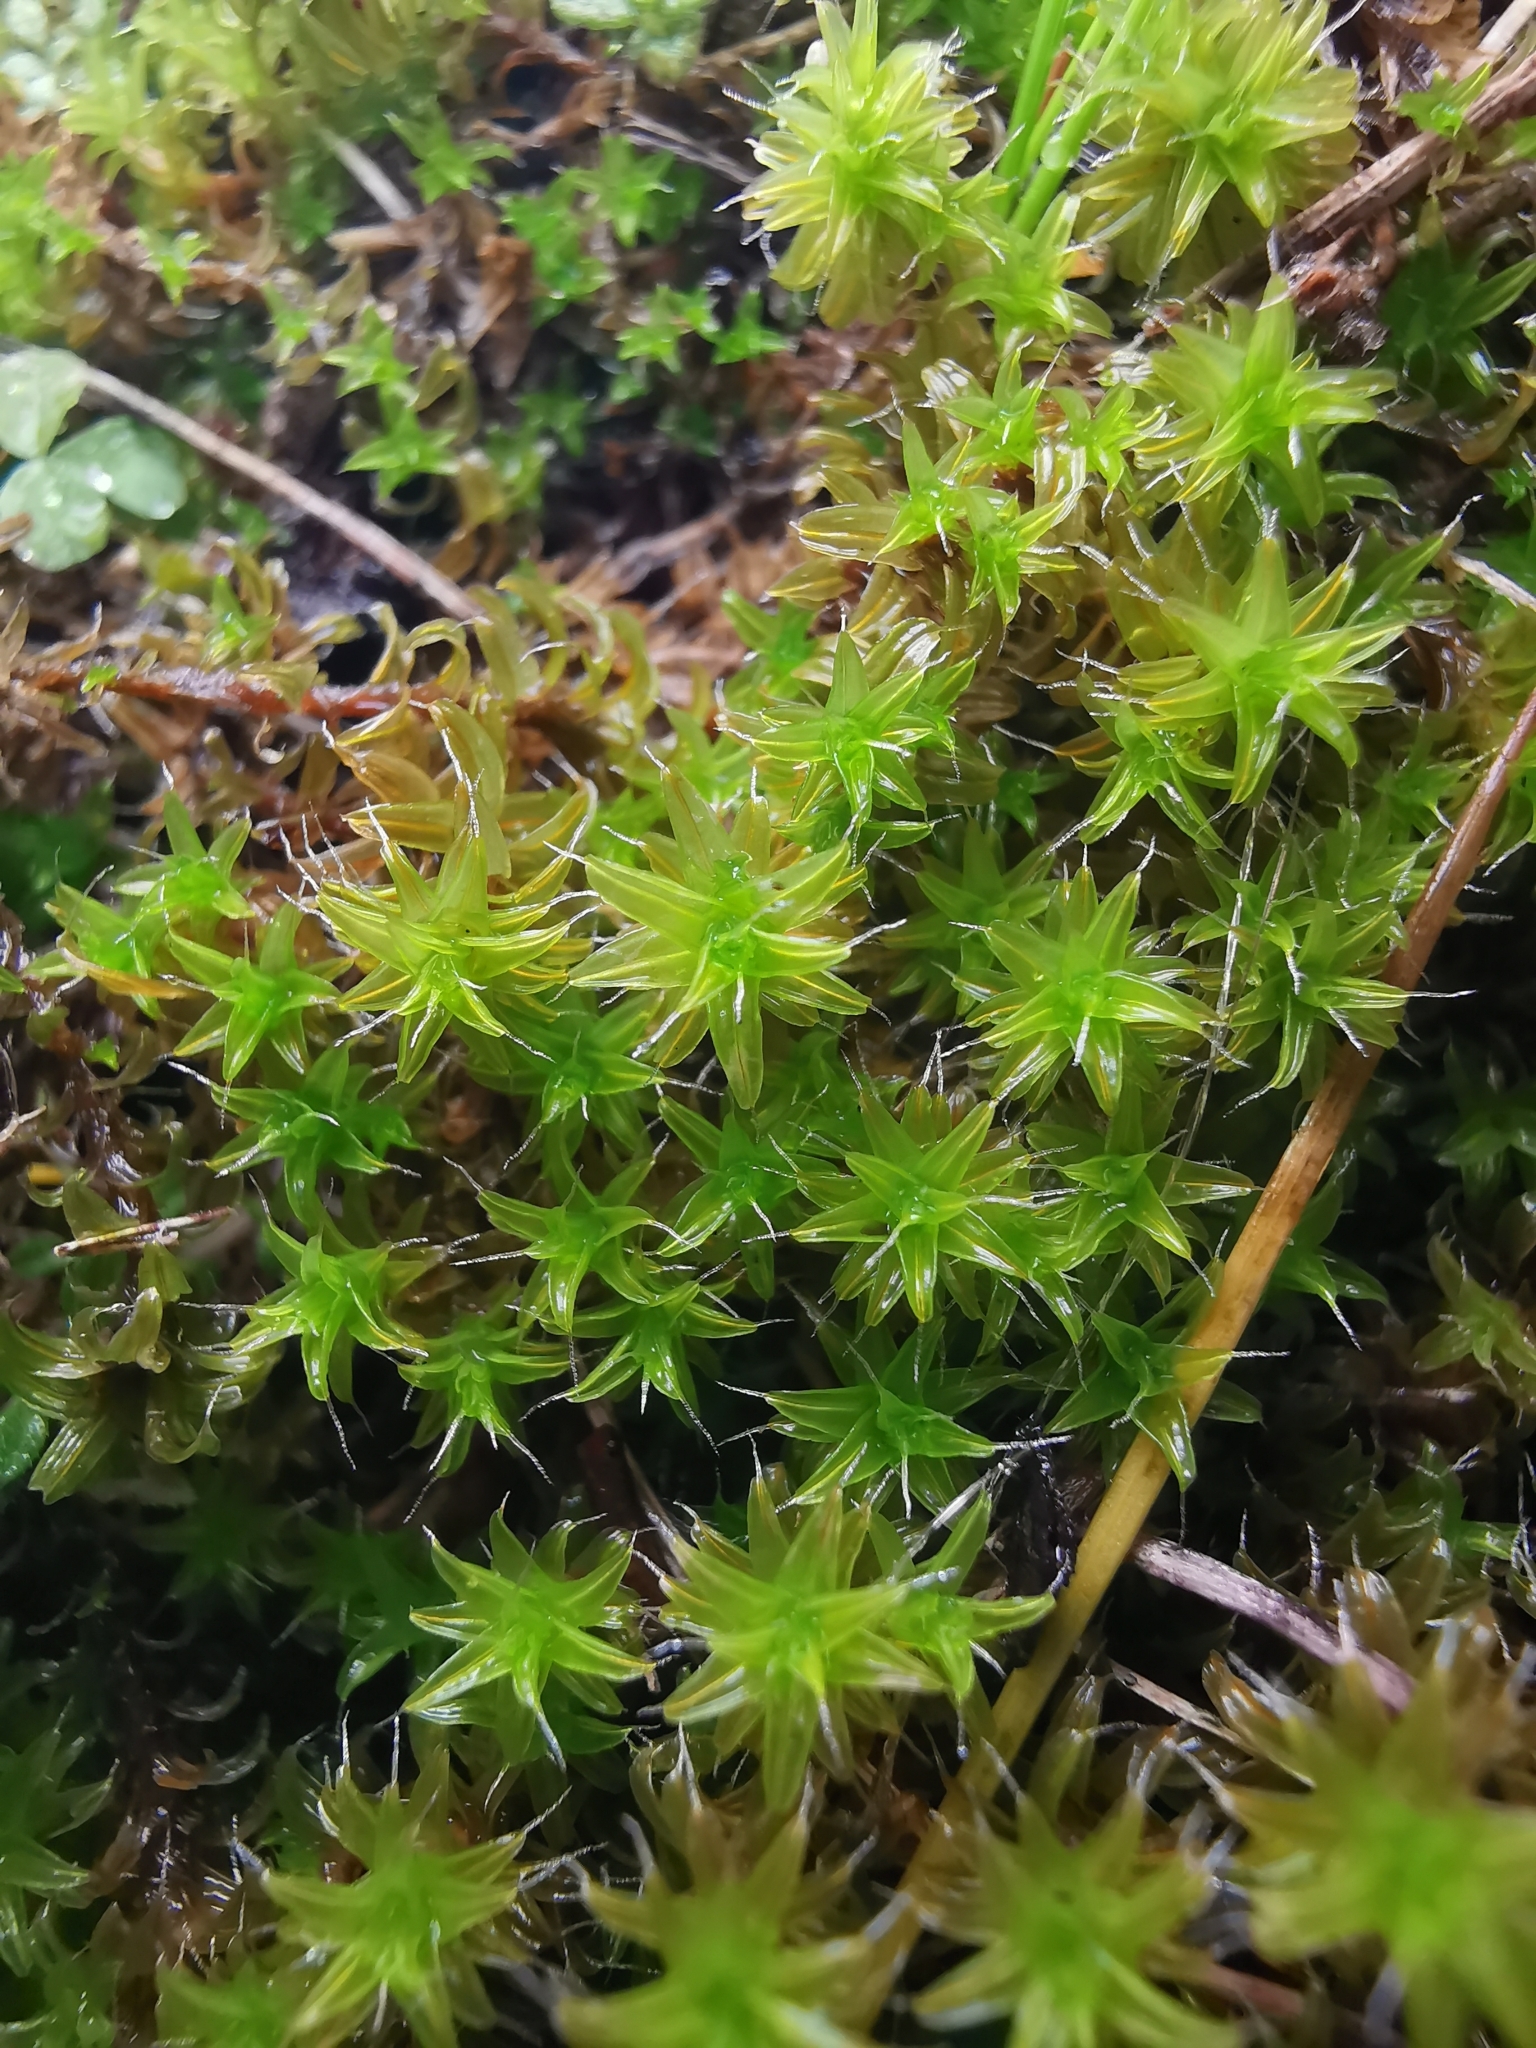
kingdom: Plantae
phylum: Bryophyta
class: Bryopsida
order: Pottiales
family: Pottiaceae
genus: Syntrichia
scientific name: Syntrichia ruralis
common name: Sidewalk screw moss
